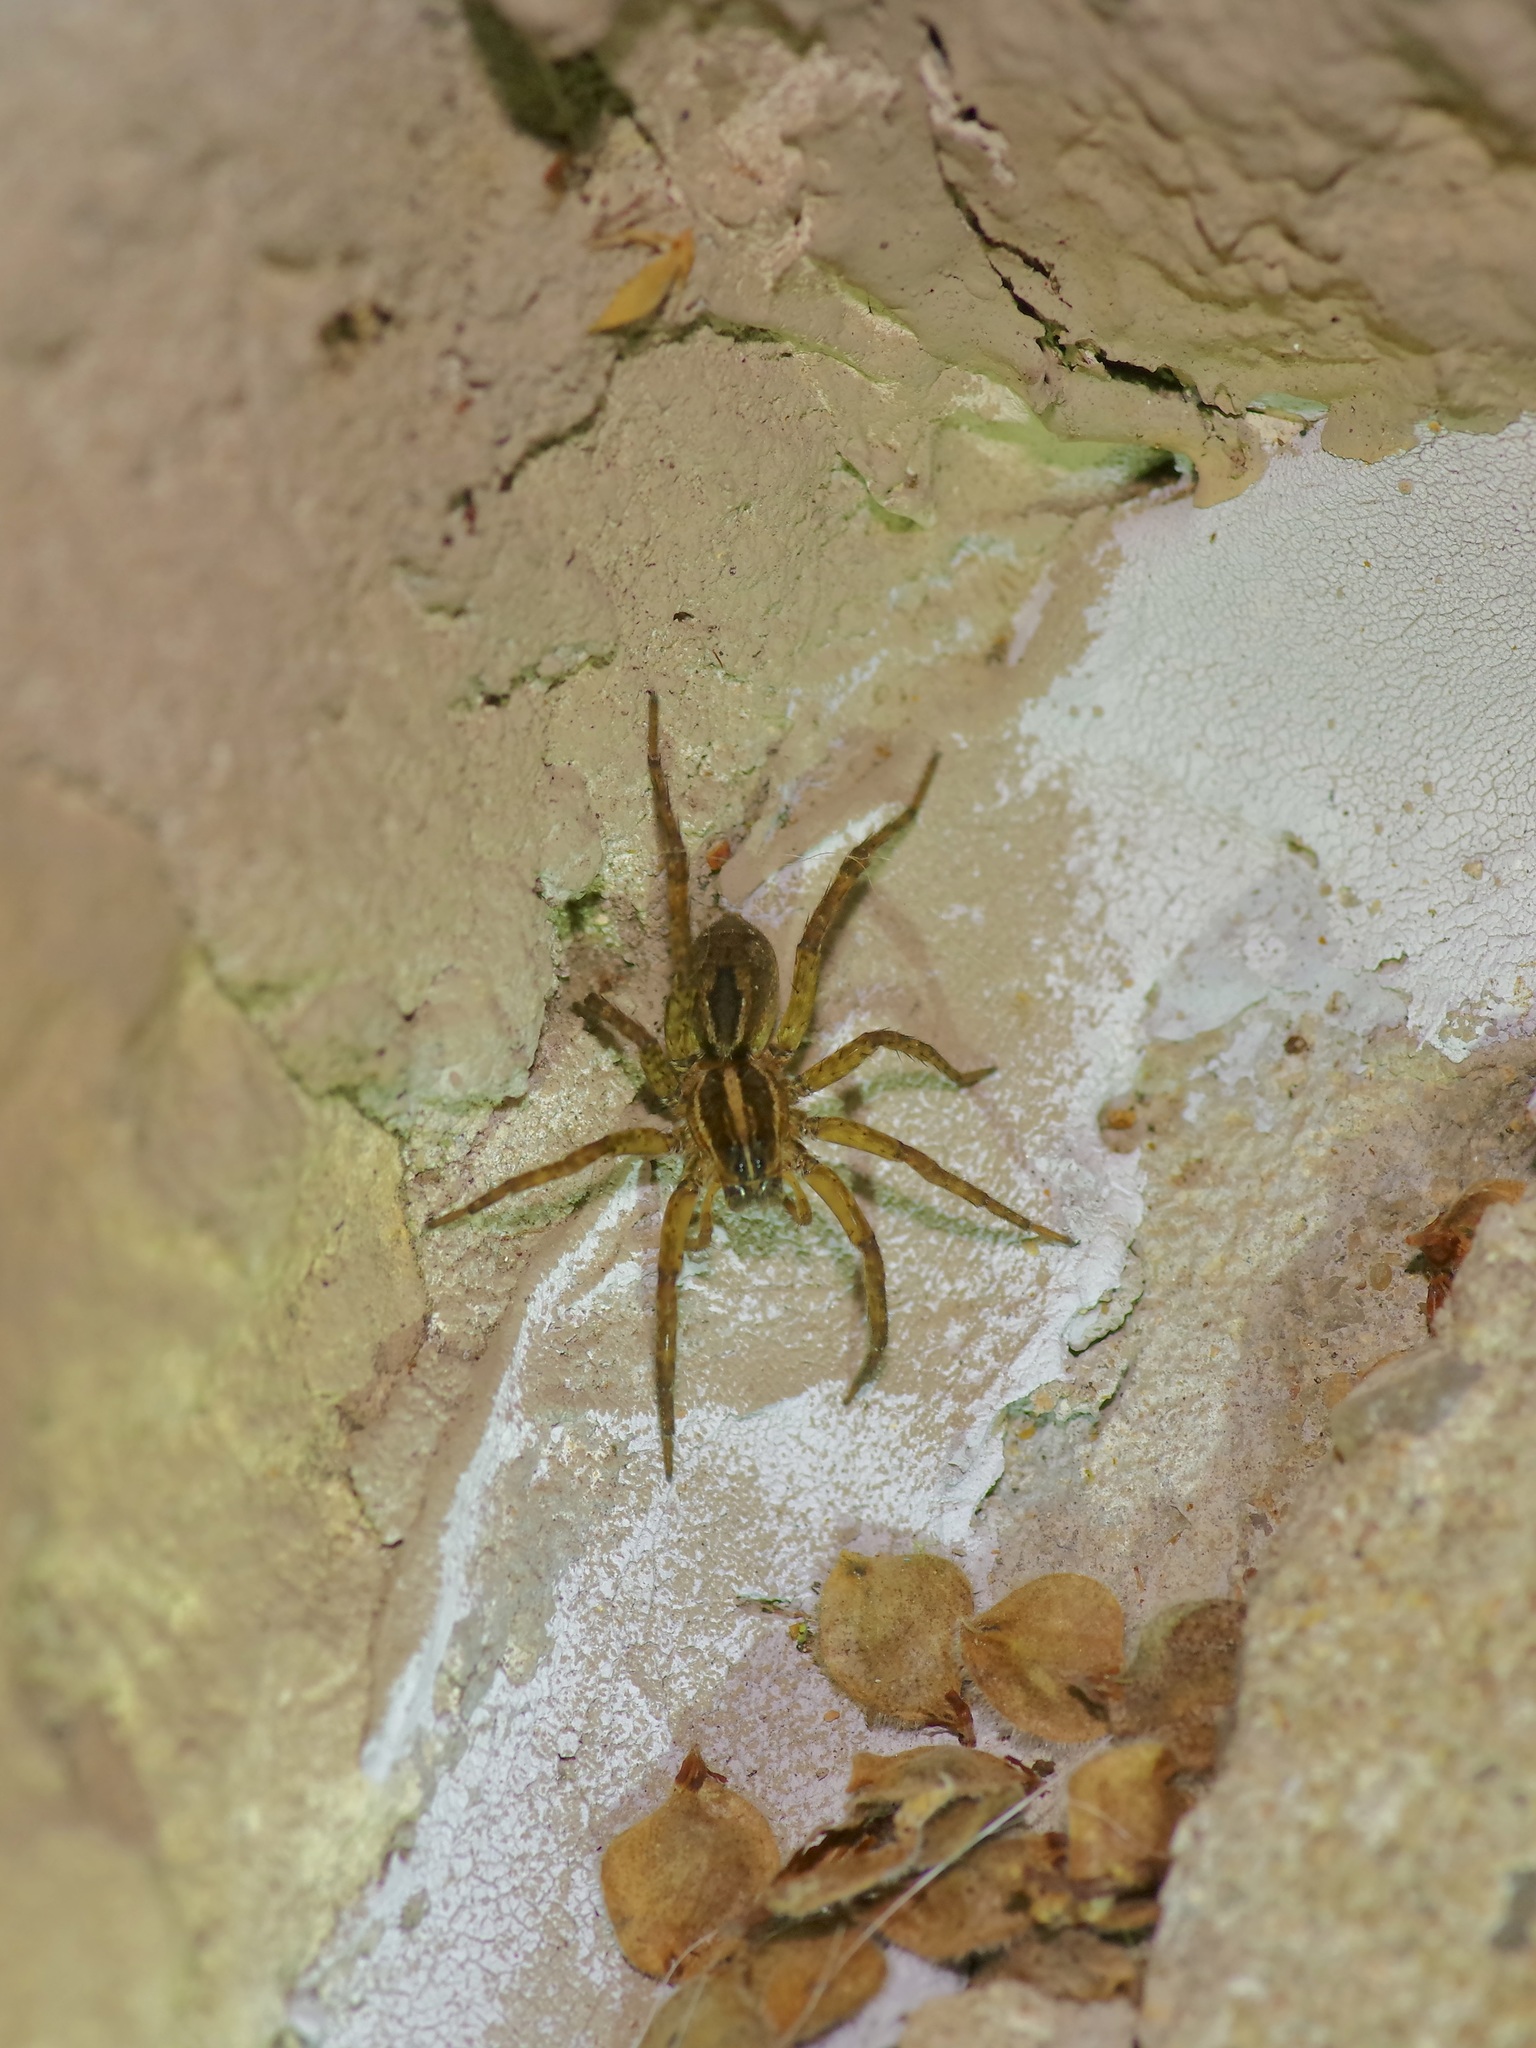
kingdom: Animalia
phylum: Arthropoda
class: Arachnida
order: Araneae
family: Lycosidae
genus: Tigrosa
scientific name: Tigrosa annexa
